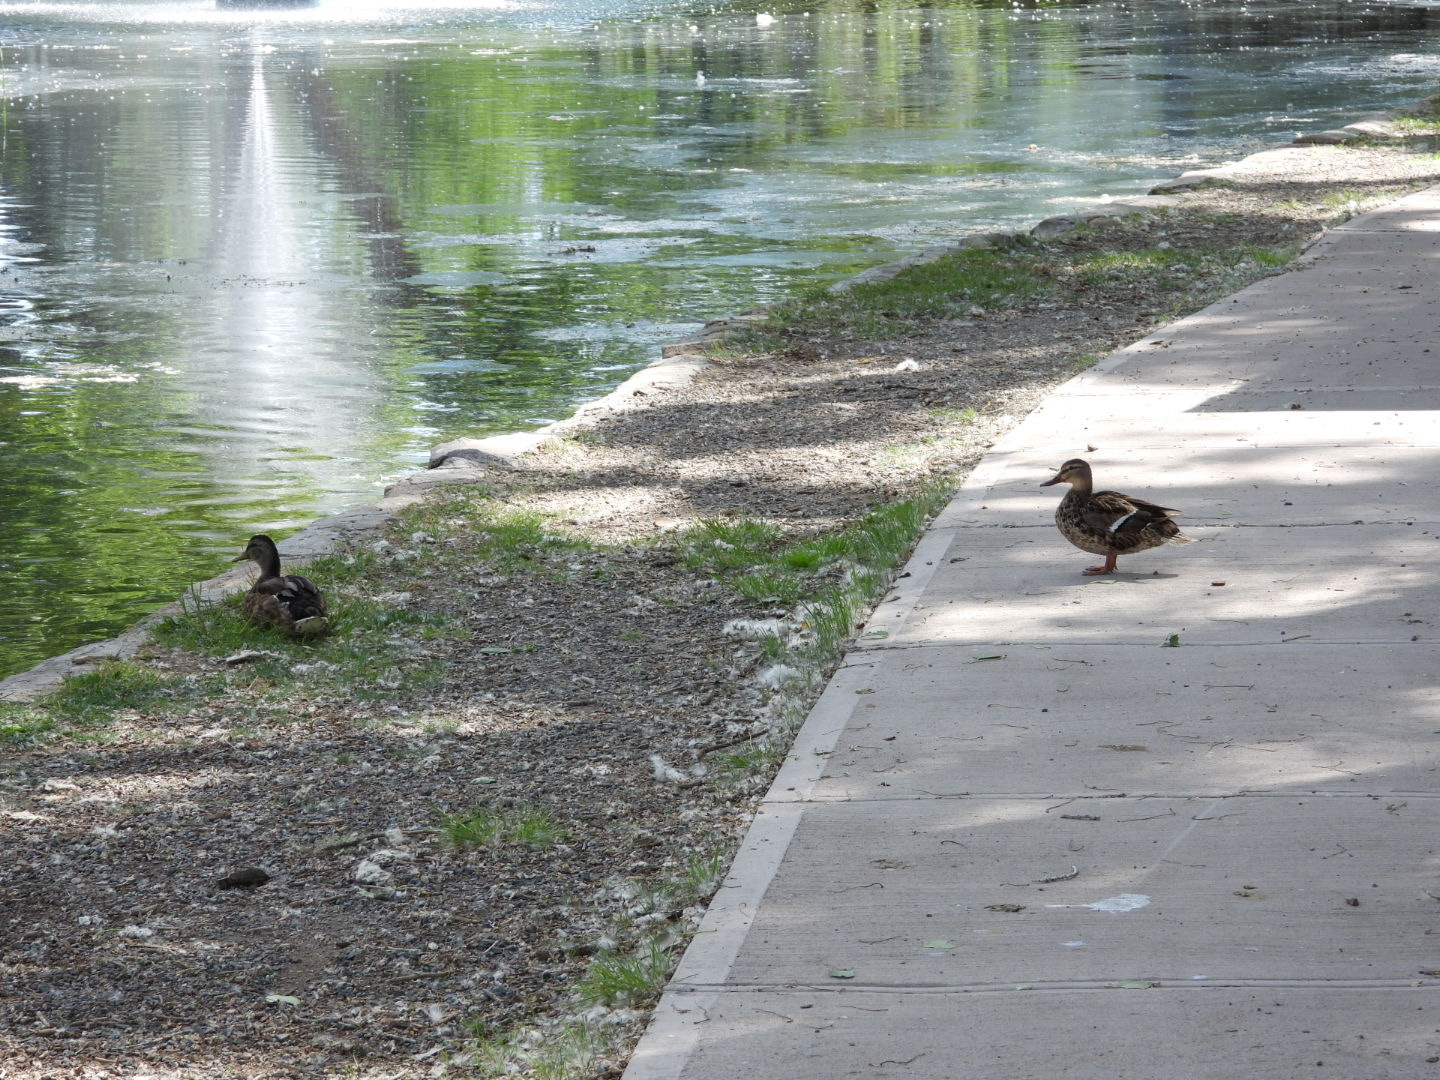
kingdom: Animalia
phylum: Chordata
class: Aves
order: Anseriformes
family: Anatidae
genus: Anas
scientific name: Anas platyrhynchos
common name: Mallard
